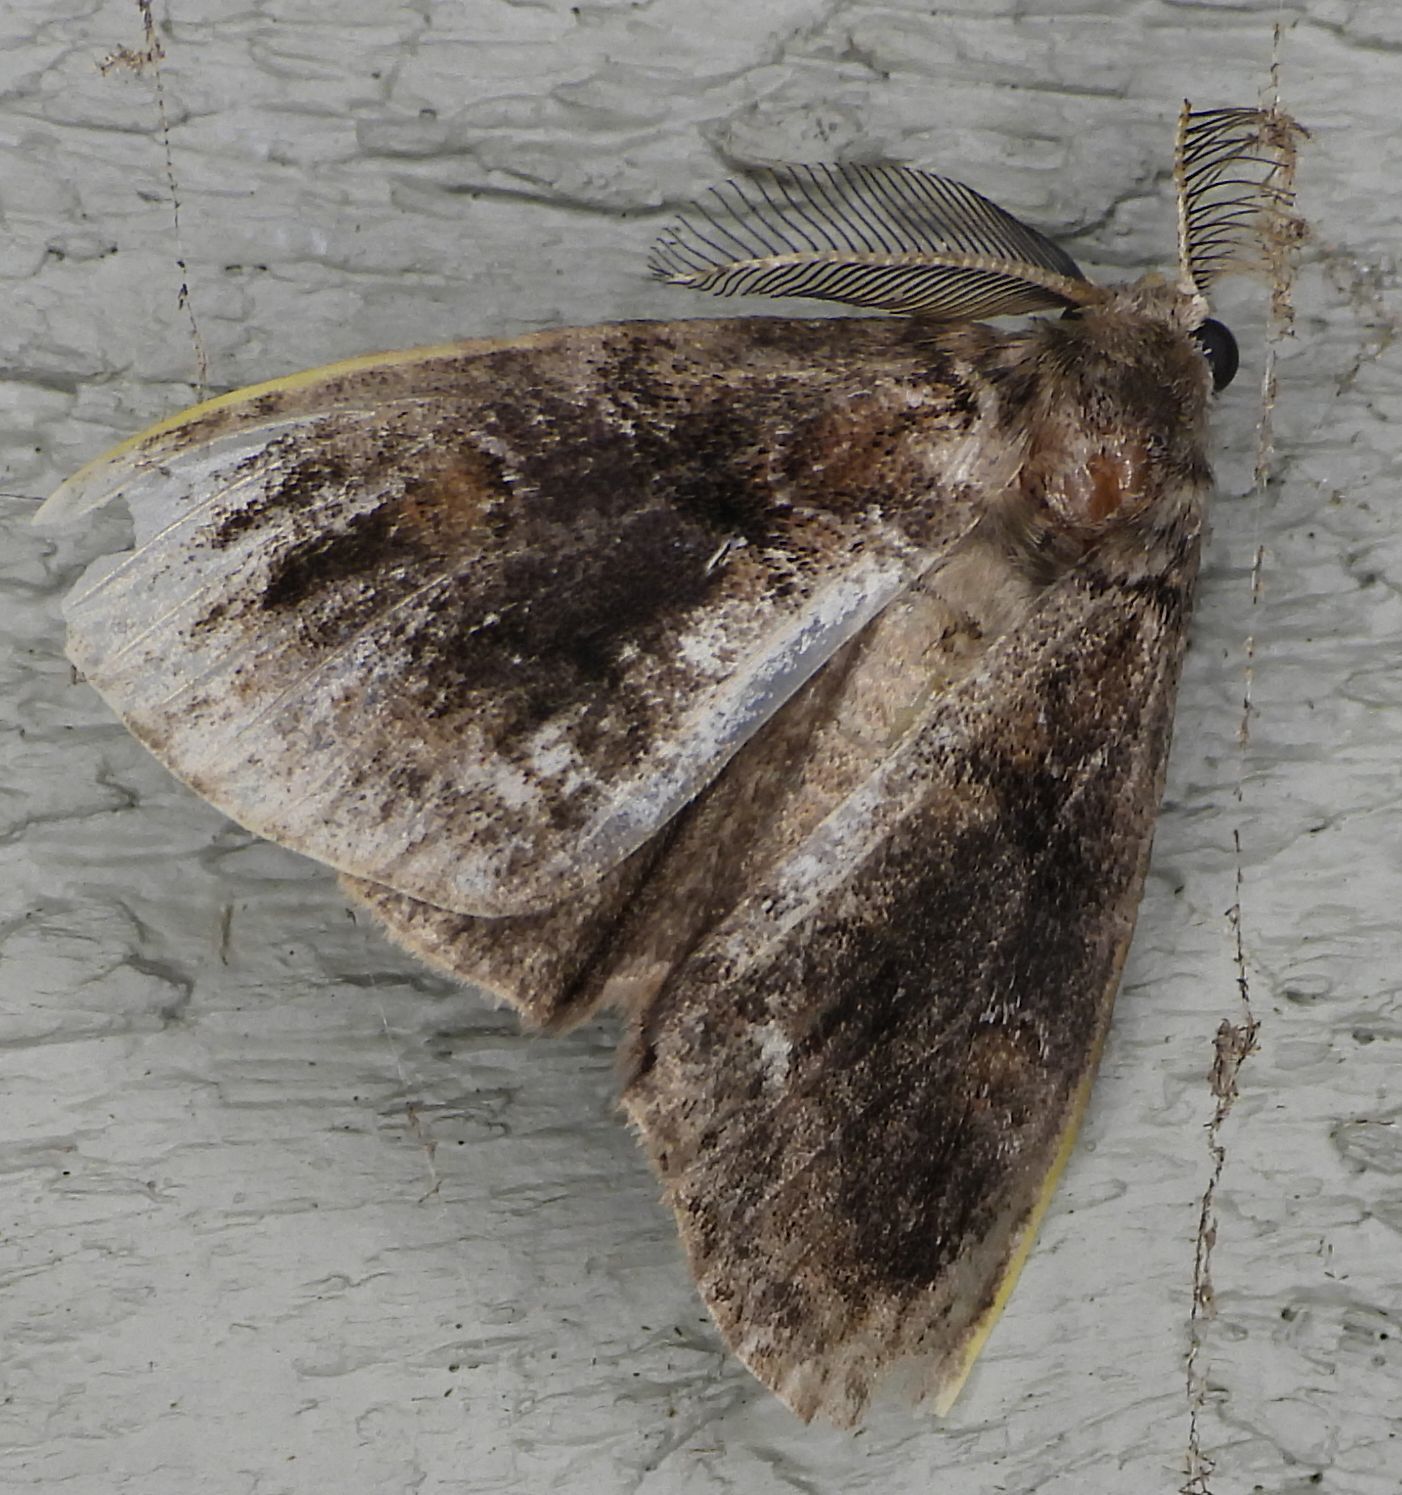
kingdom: Animalia
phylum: Arthropoda
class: Insecta
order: Lepidoptera
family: Erebidae
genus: Orgyia
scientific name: Orgyia definita
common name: Definite tussock moth
